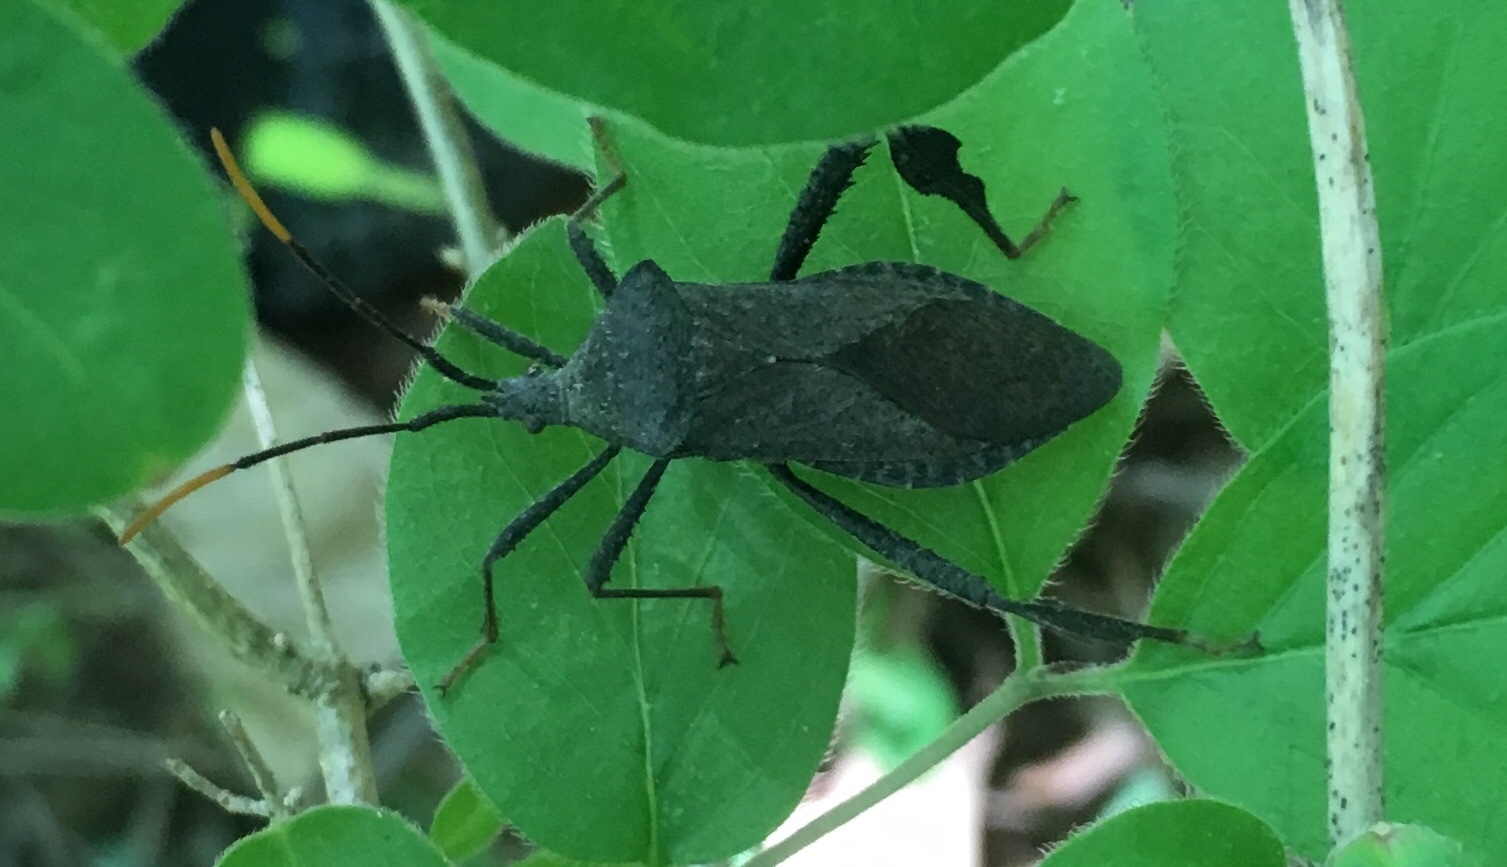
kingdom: Animalia
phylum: Arthropoda
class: Insecta
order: Hemiptera
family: Coreidae
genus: Acanthocephala
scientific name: Acanthocephala terminalis
